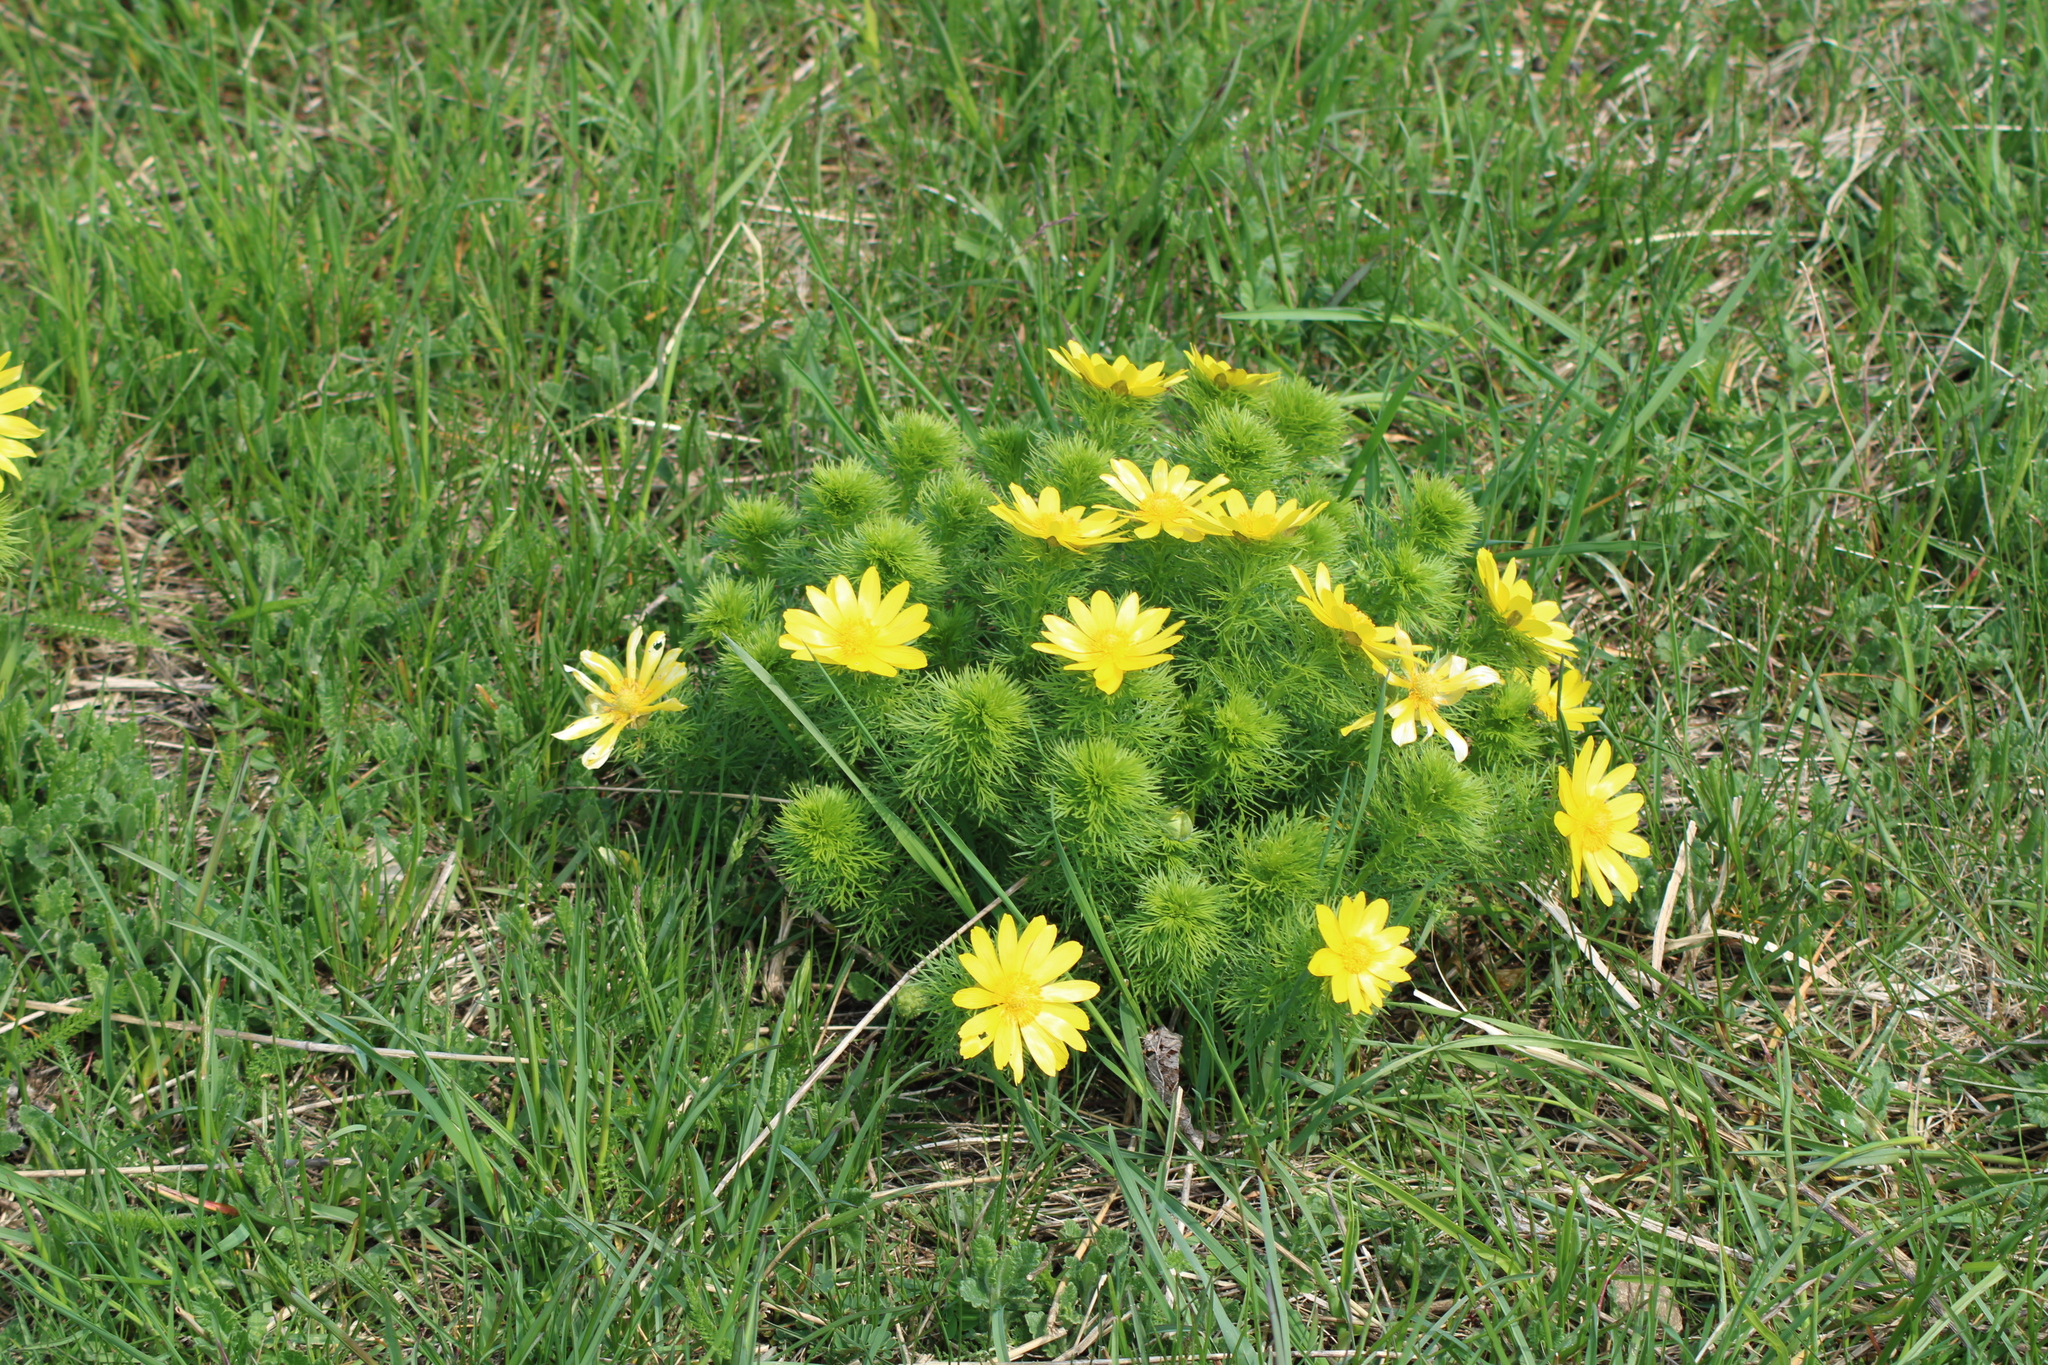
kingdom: Plantae
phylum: Tracheophyta
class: Magnoliopsida
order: Ranunculales
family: Ranunculaceae
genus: Adonis
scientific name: Adonis vernalis
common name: Yellow pheasants-eye
